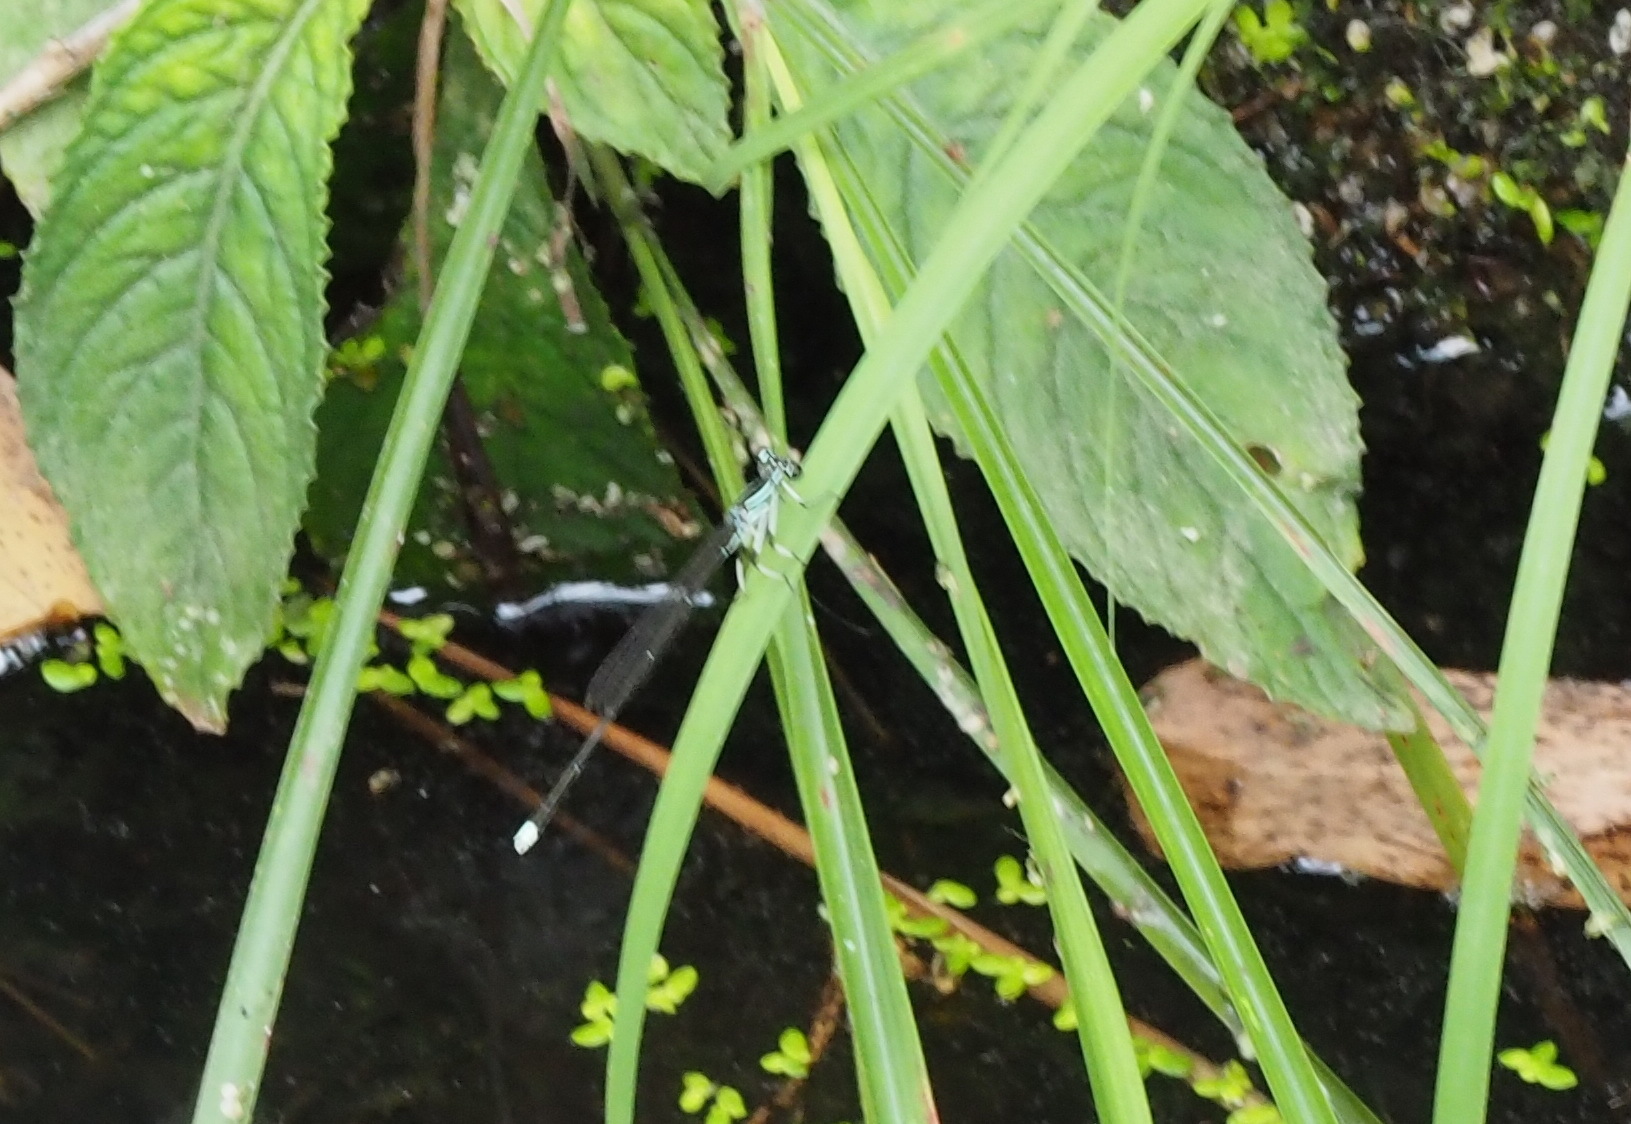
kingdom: Animalia
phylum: Arthropoda
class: Insecta
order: Odonata
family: Platycnemididae
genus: Pseudocopera
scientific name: Pseudocopera ciliata
